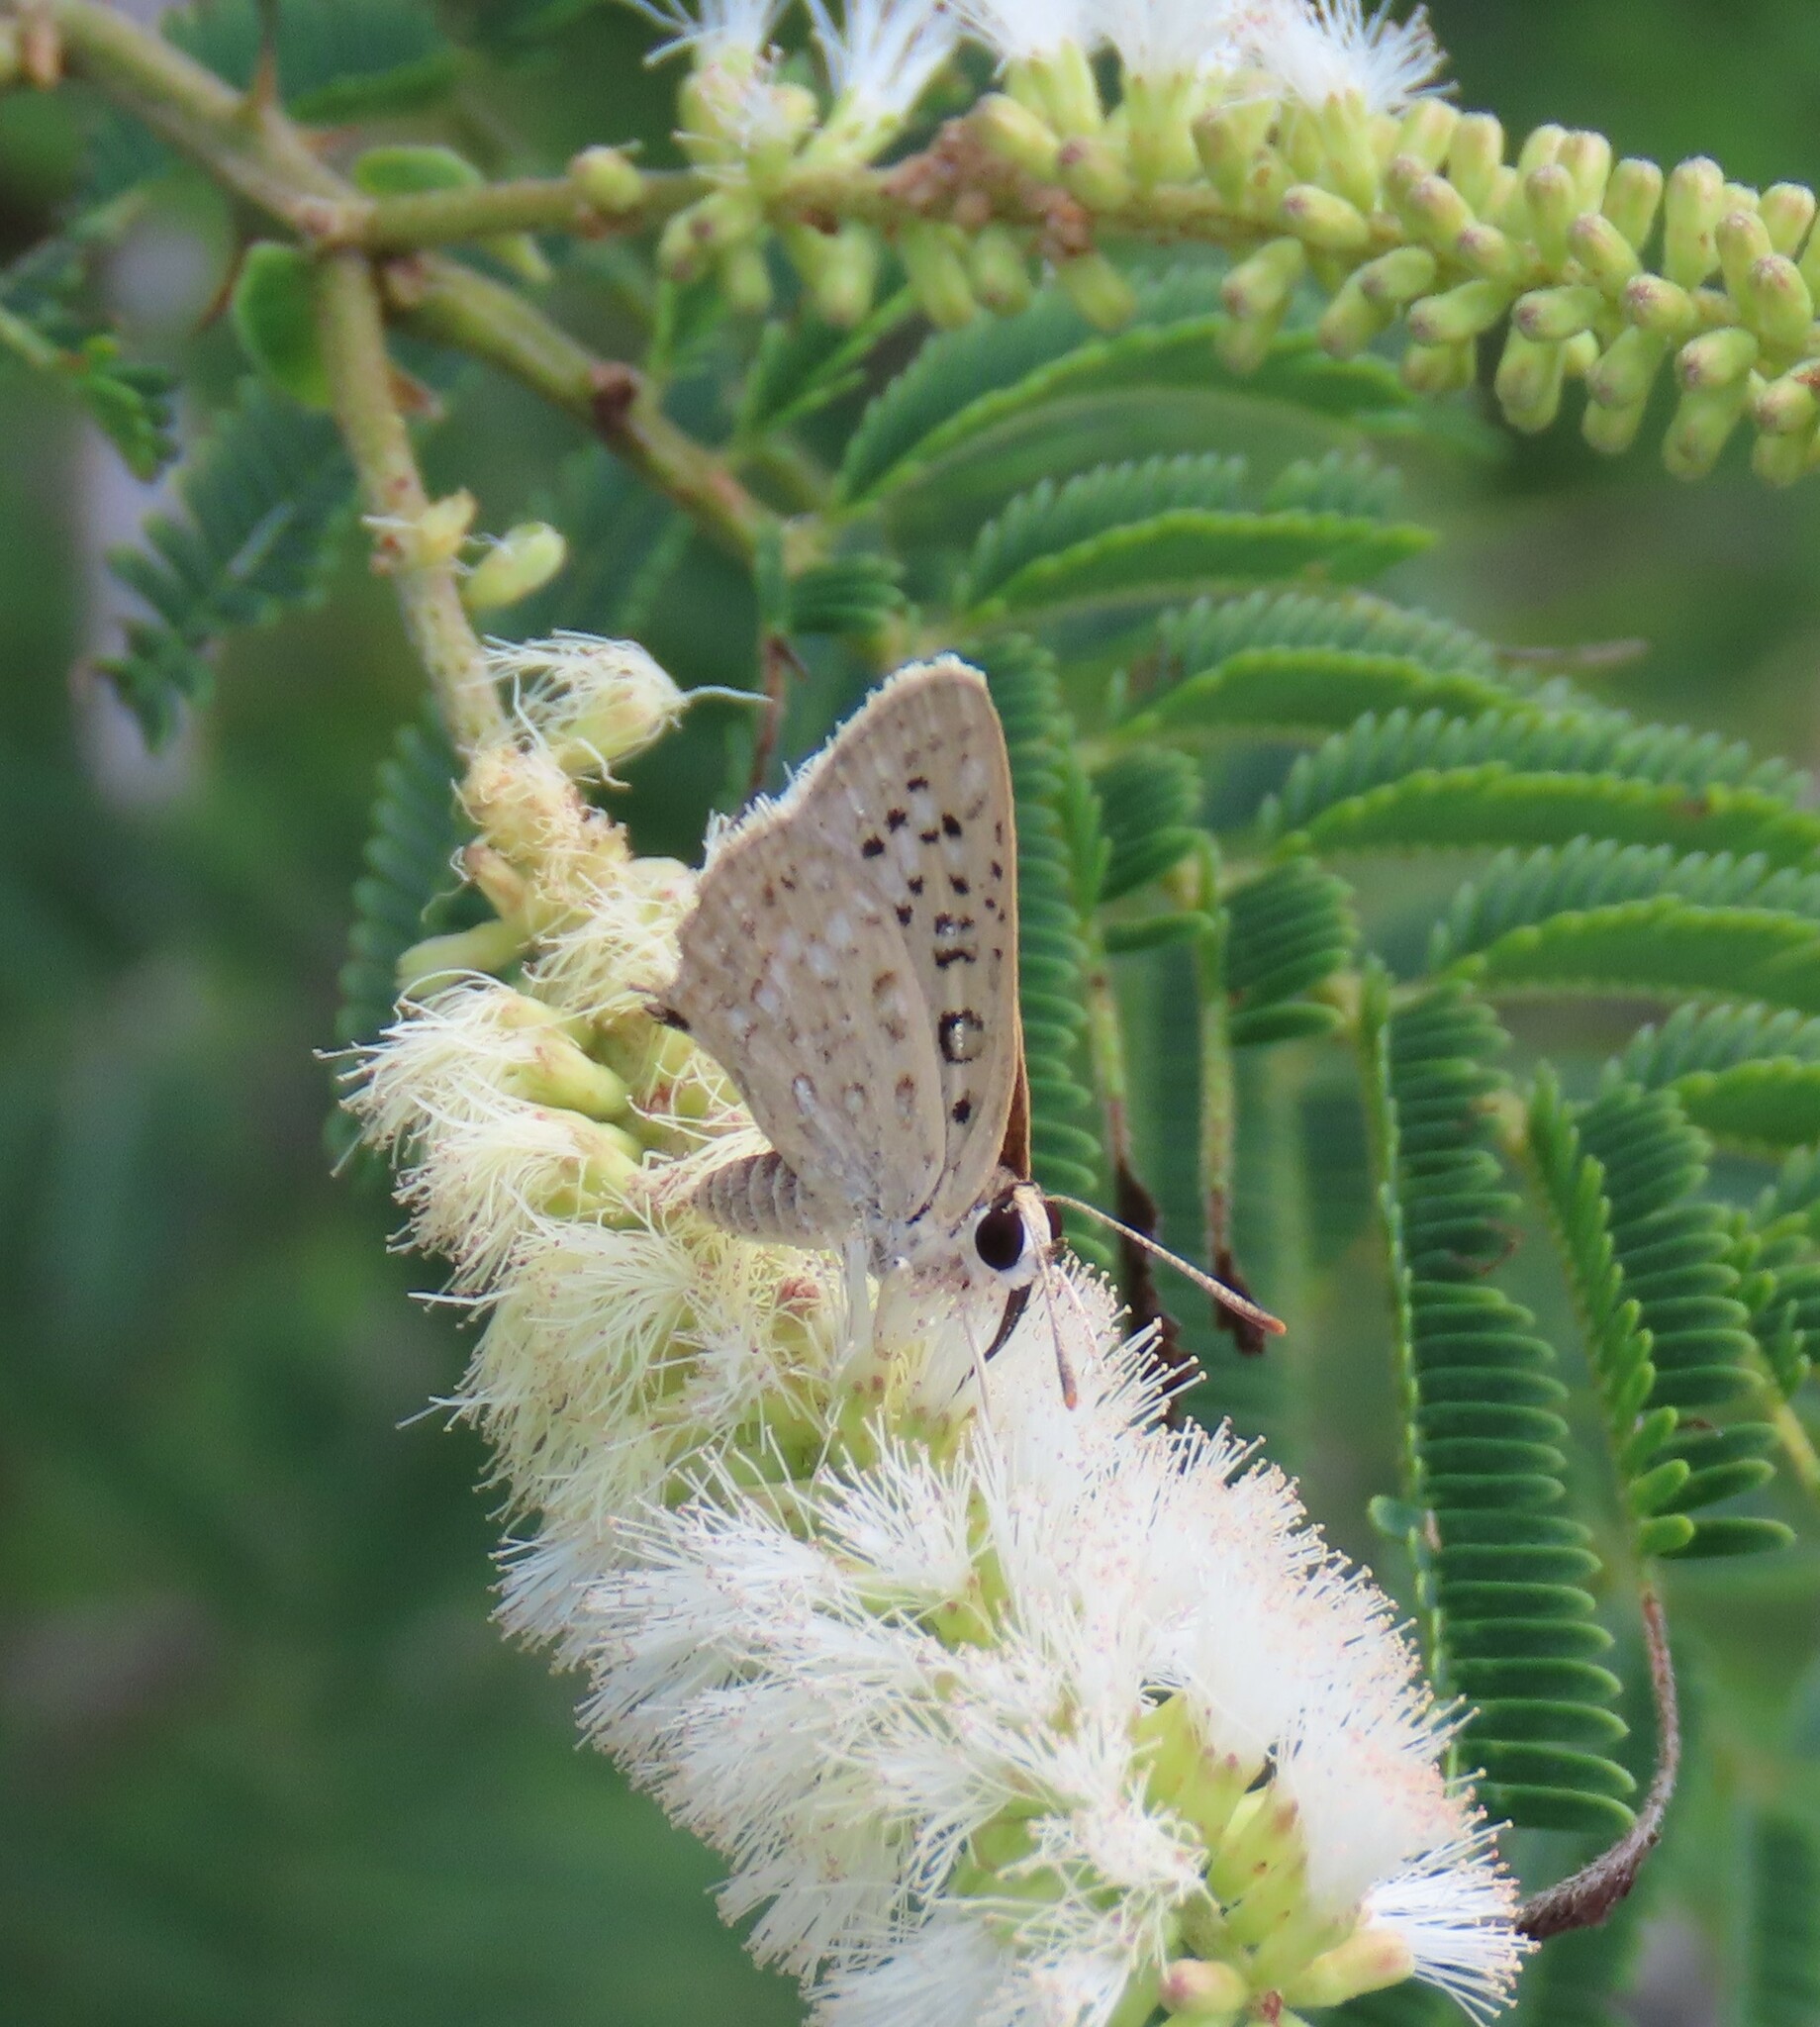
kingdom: Animalia
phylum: Arthropoda
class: Insecta
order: Lepidoptera
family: Lycaenidae
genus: Crudaria
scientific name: Crudaria leroma
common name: Silver spotted grey
